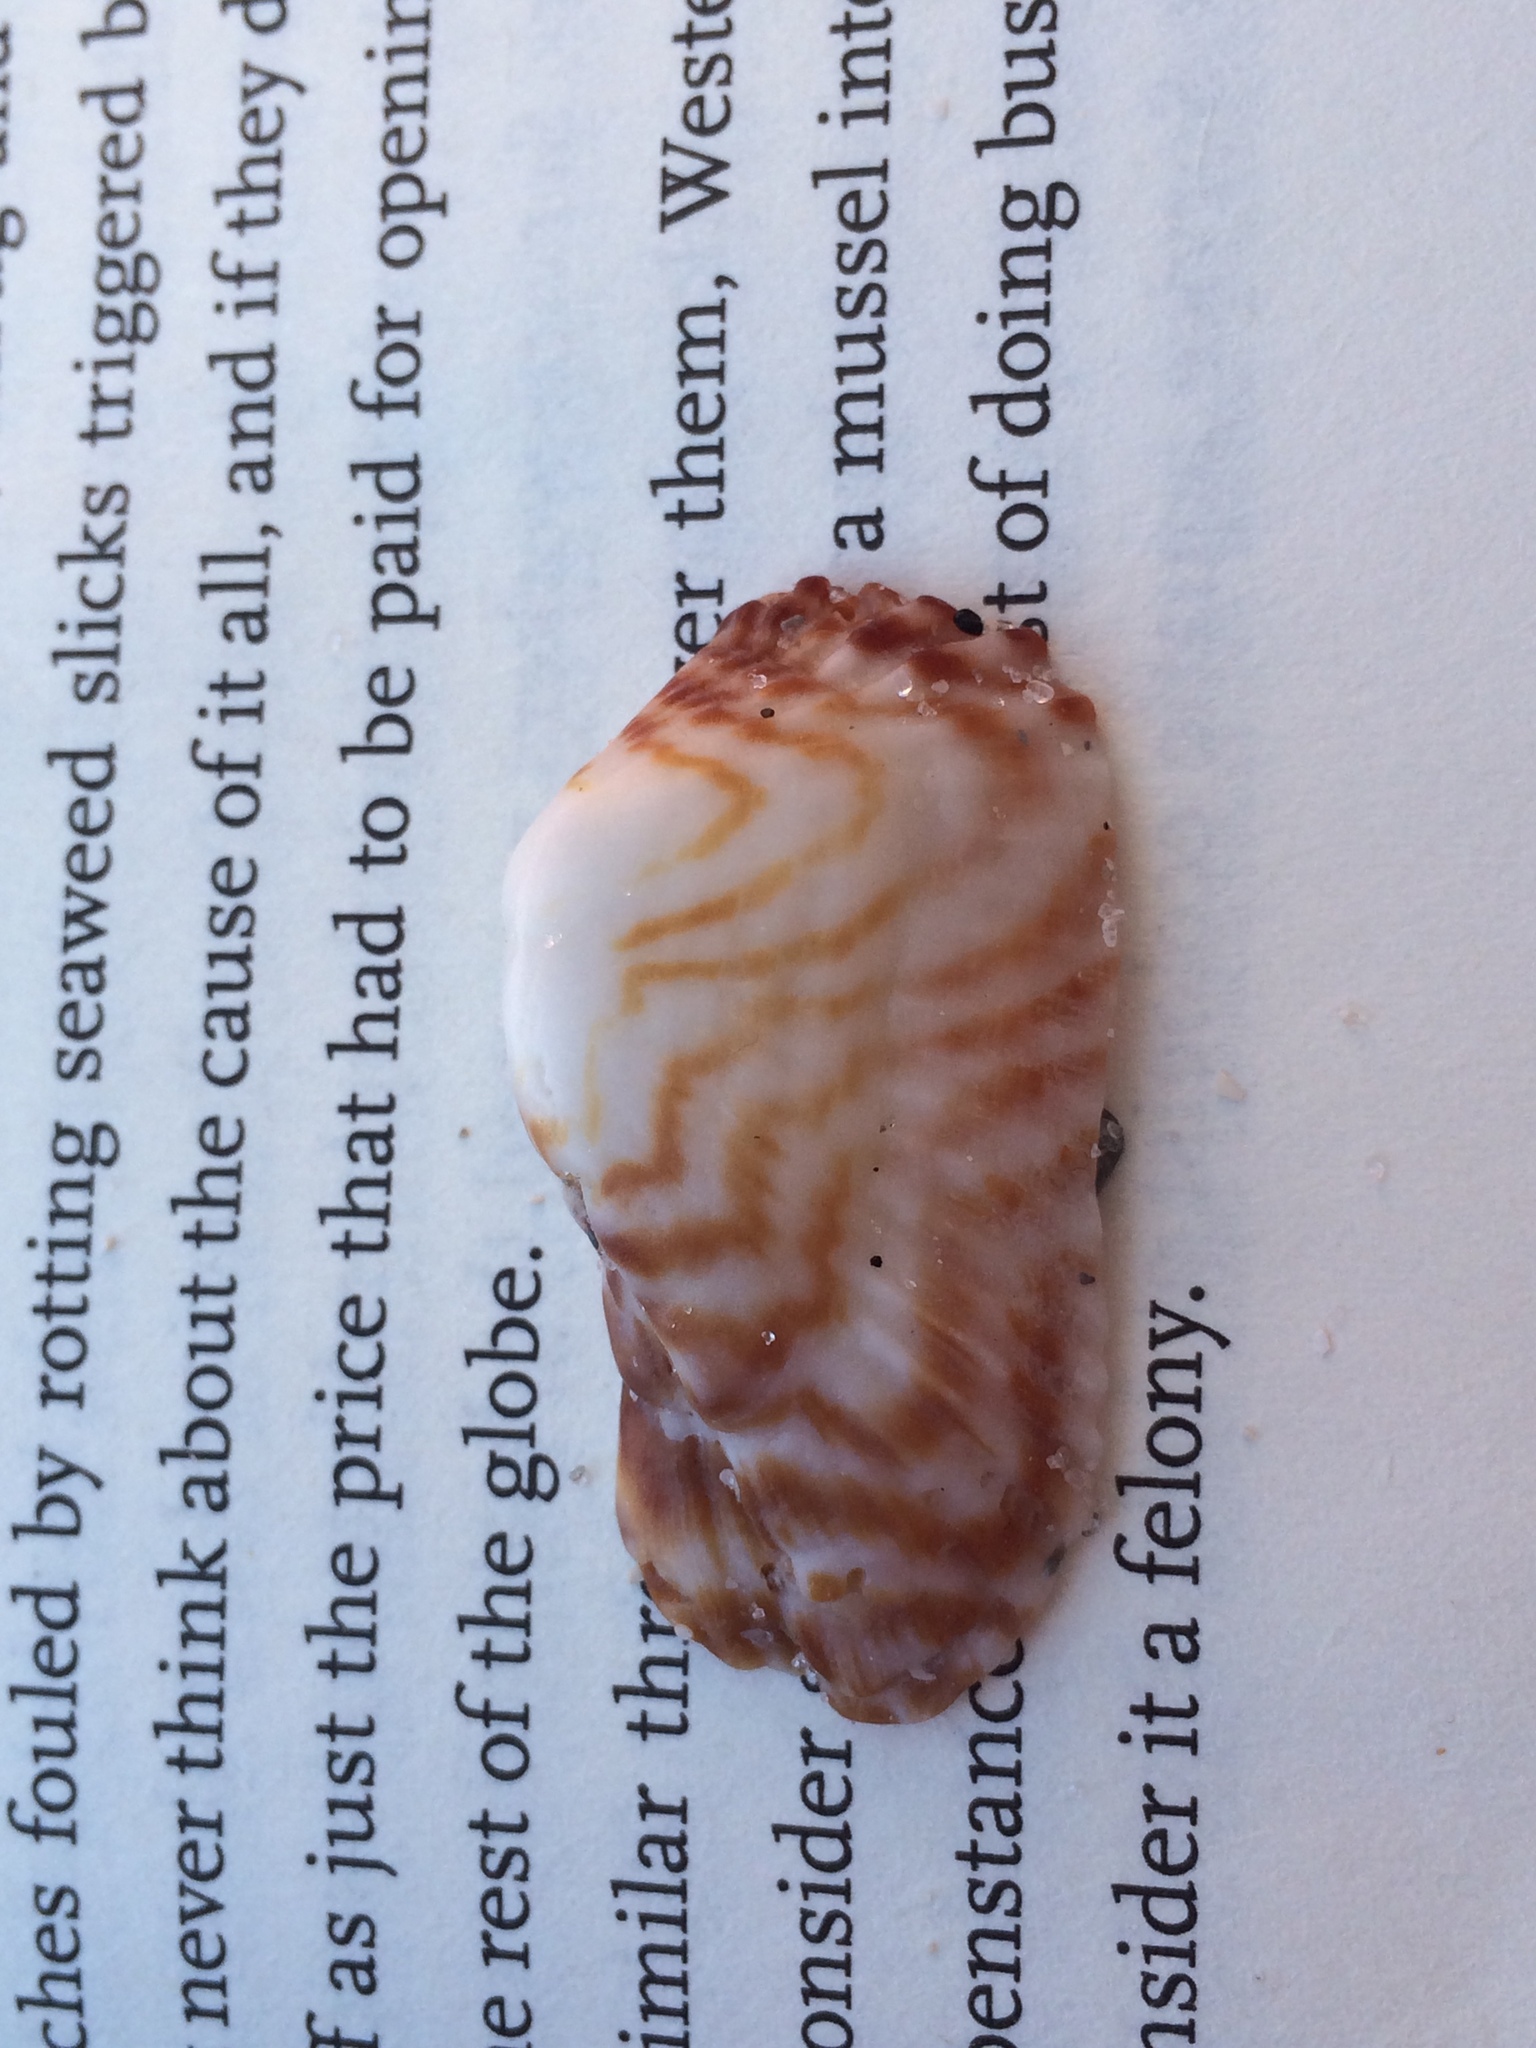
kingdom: Animalia
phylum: Mollusca
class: Bivalvia
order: Arcida
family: Arcidae
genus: Arca
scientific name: Arca zebra
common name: Atlantic turkey wing
